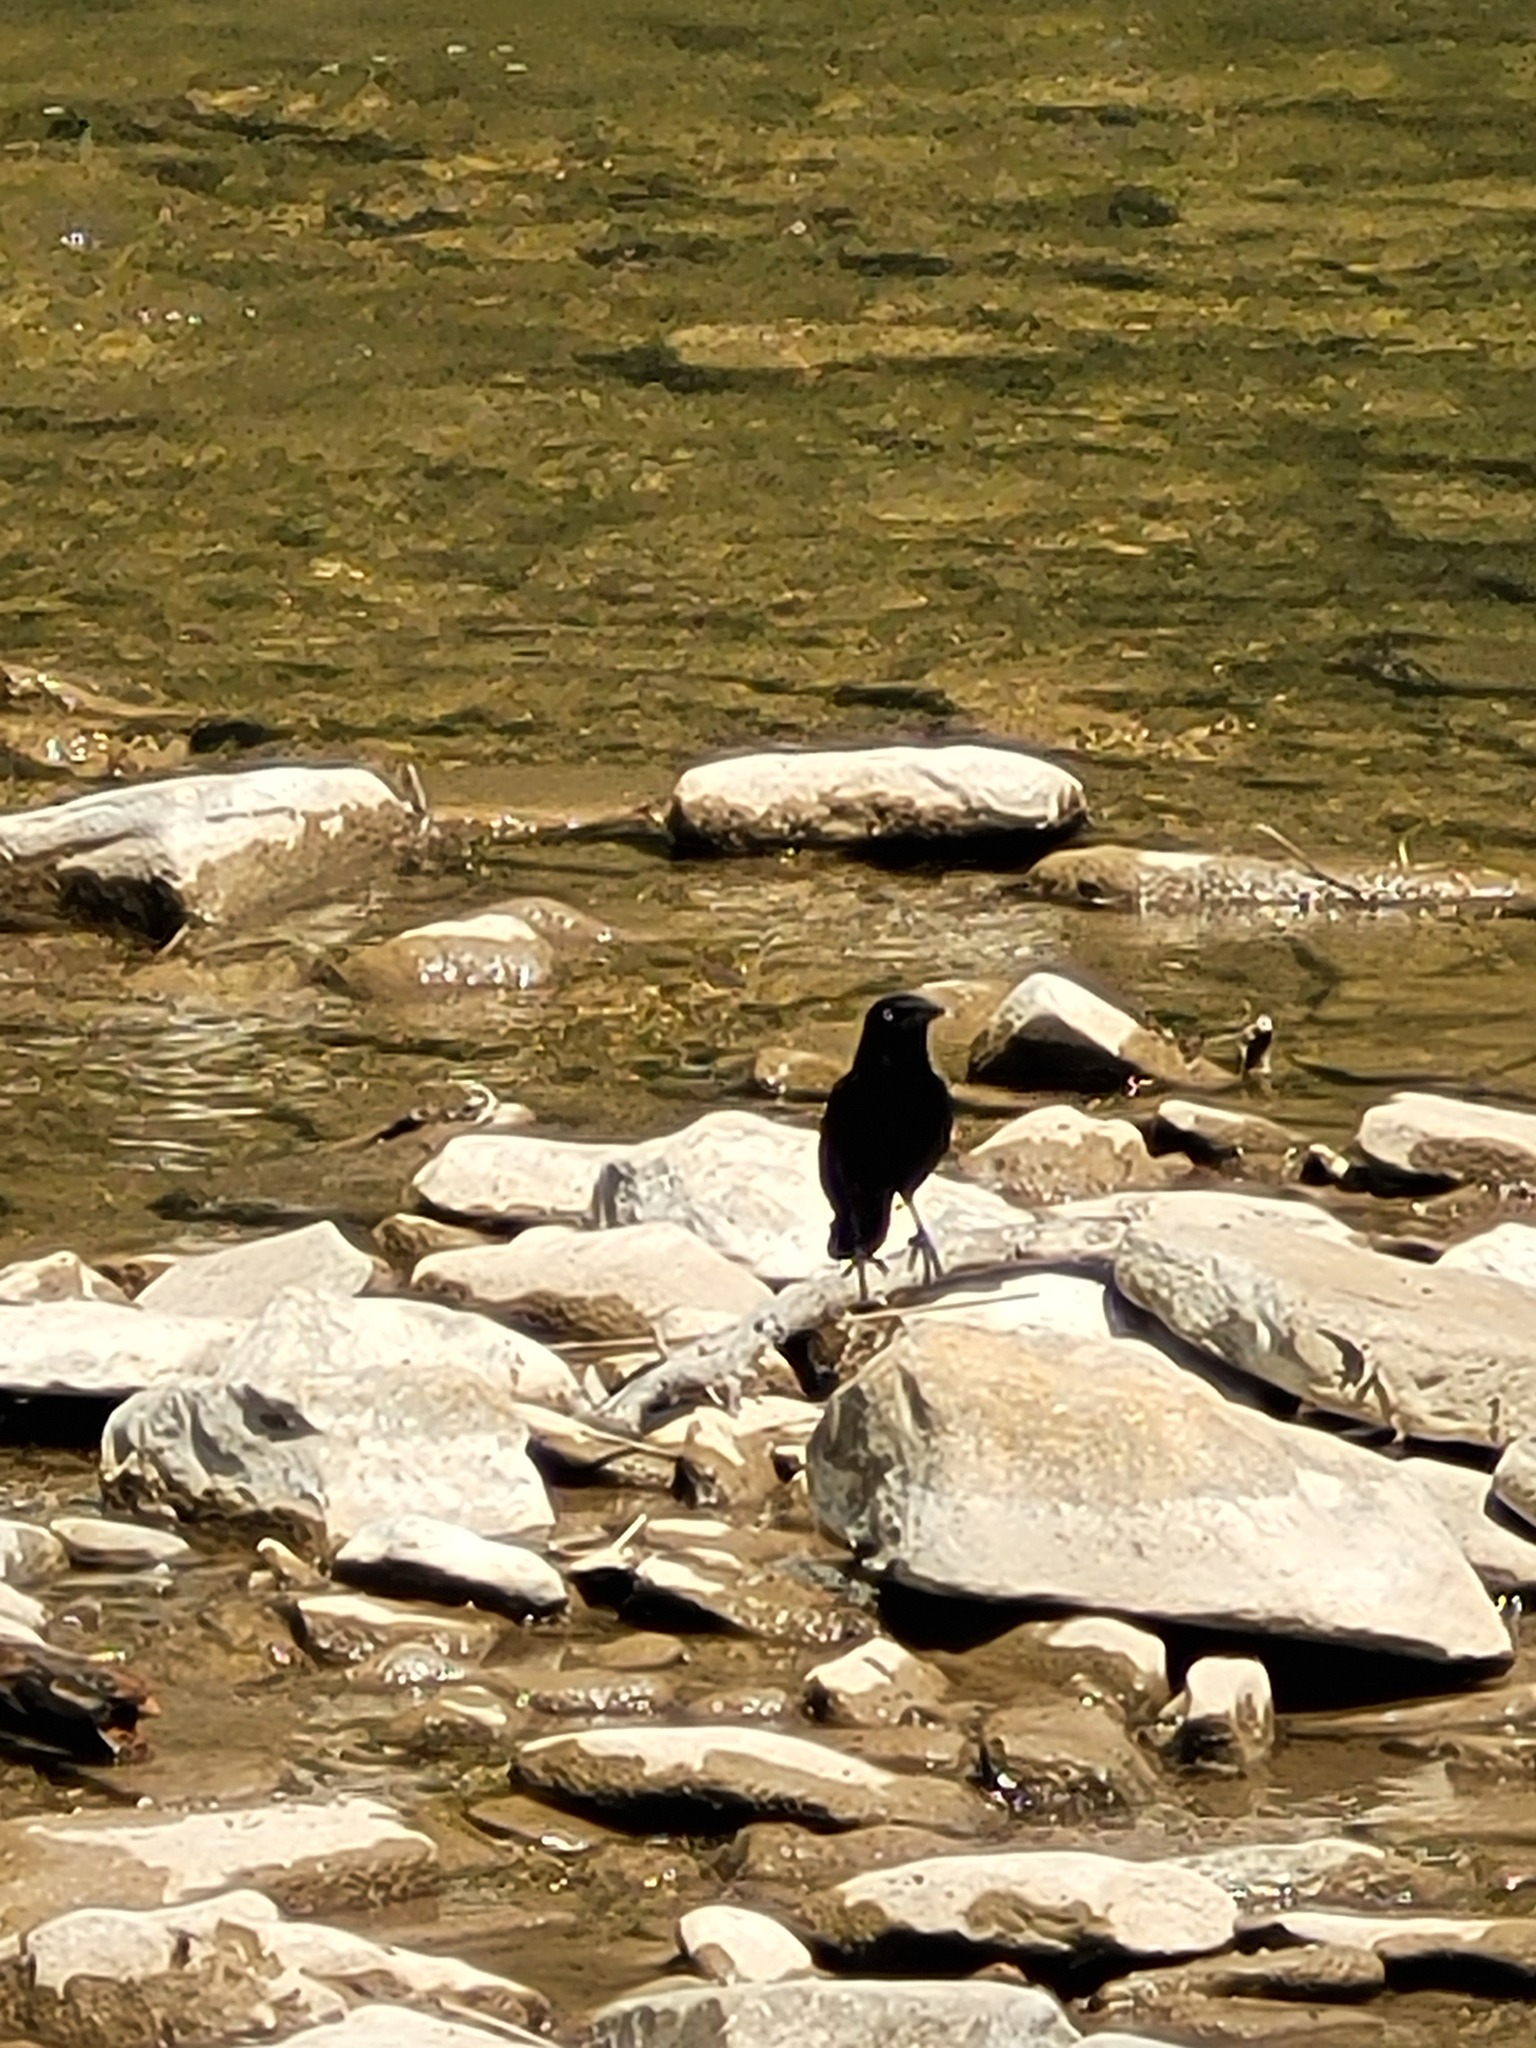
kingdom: Animalia
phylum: Chordata
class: Aves
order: Passeriformes
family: Icteridae
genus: Quiscalus
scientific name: Quiscalus quiscula
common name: Common grackle
